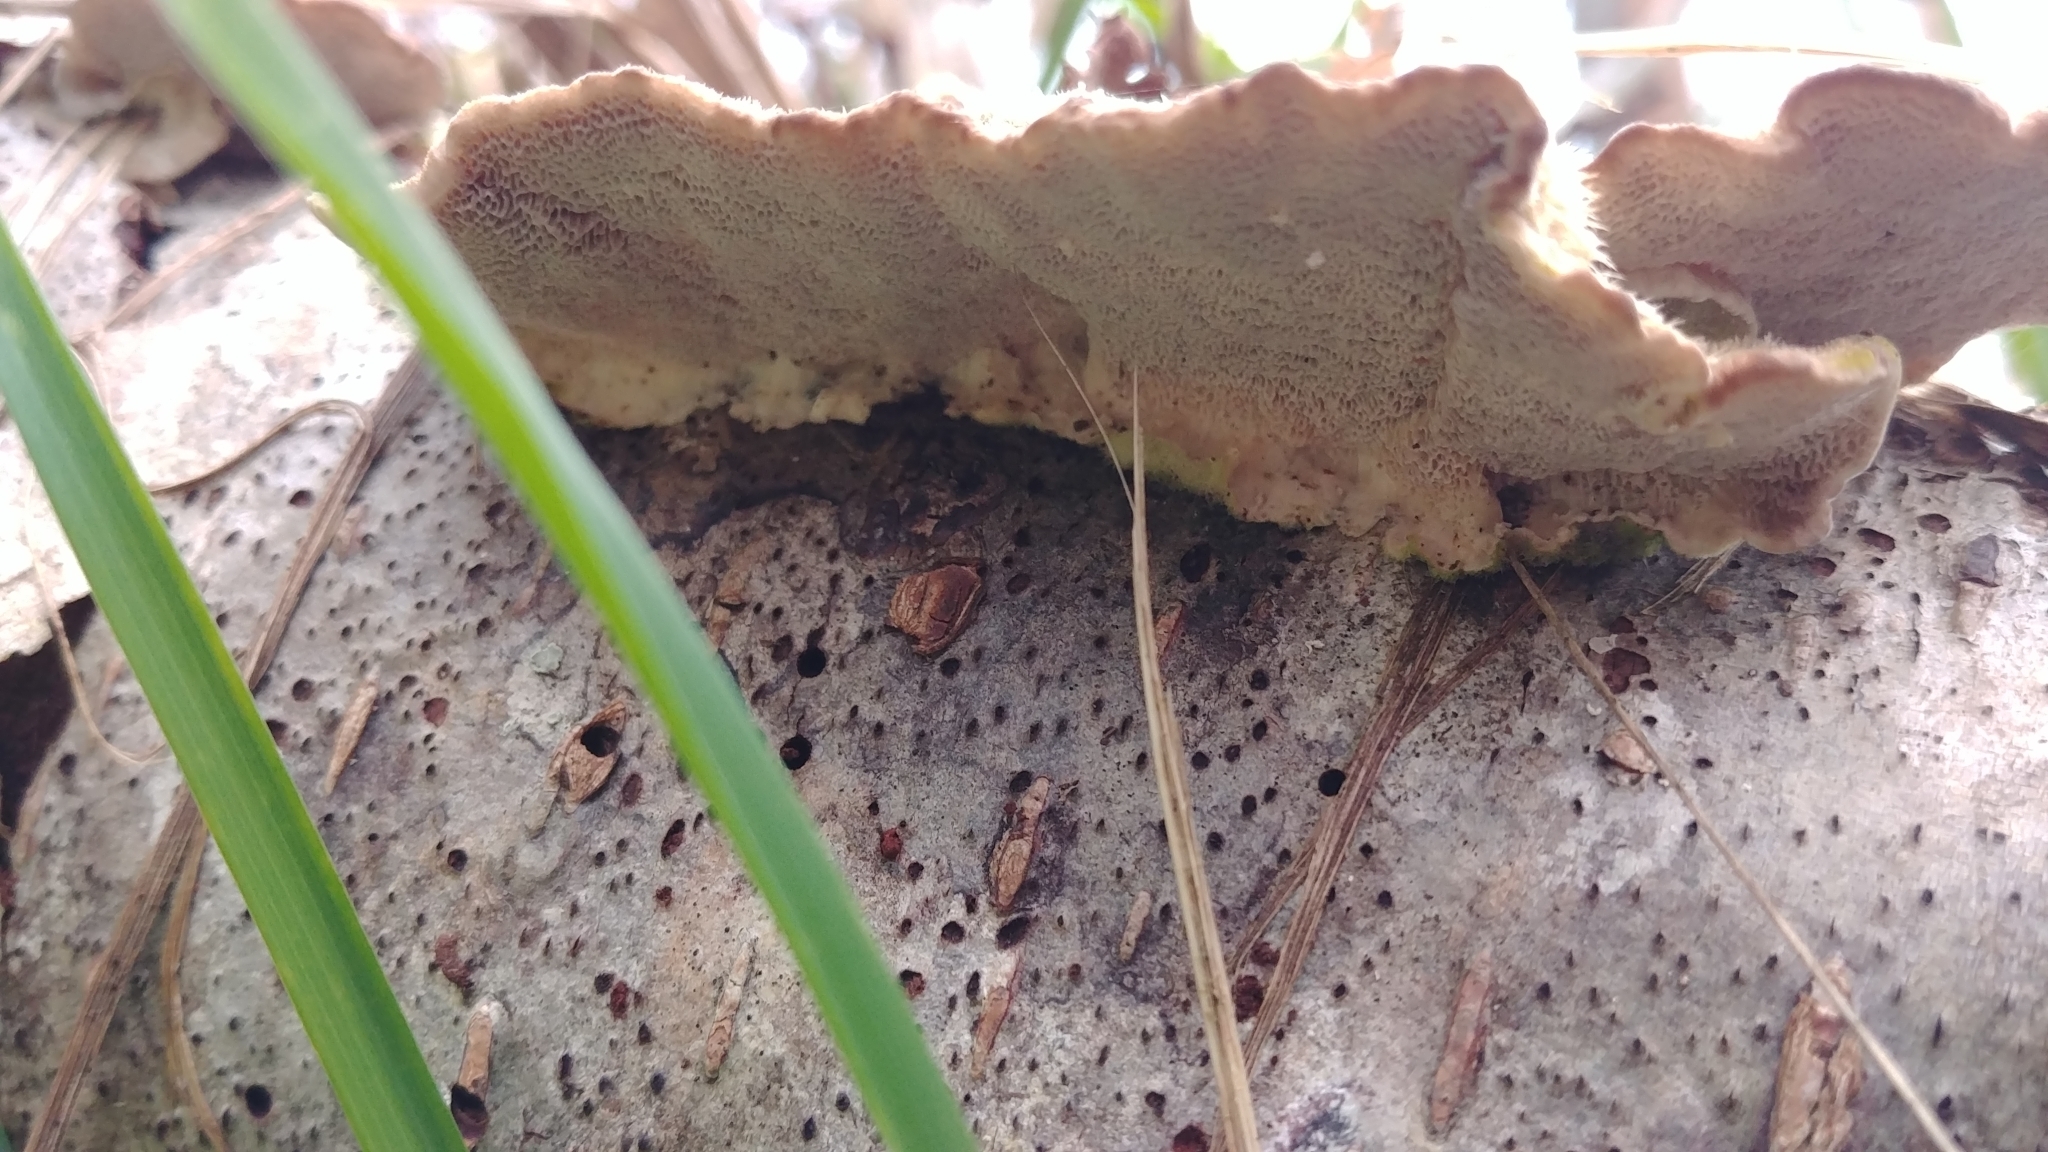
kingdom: Fungi
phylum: Basidiomycota
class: Agaricomycetes
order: Polyporales
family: Polyporaceae
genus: Trametes
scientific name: Trametes hirsuta
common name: Hairy bracket
